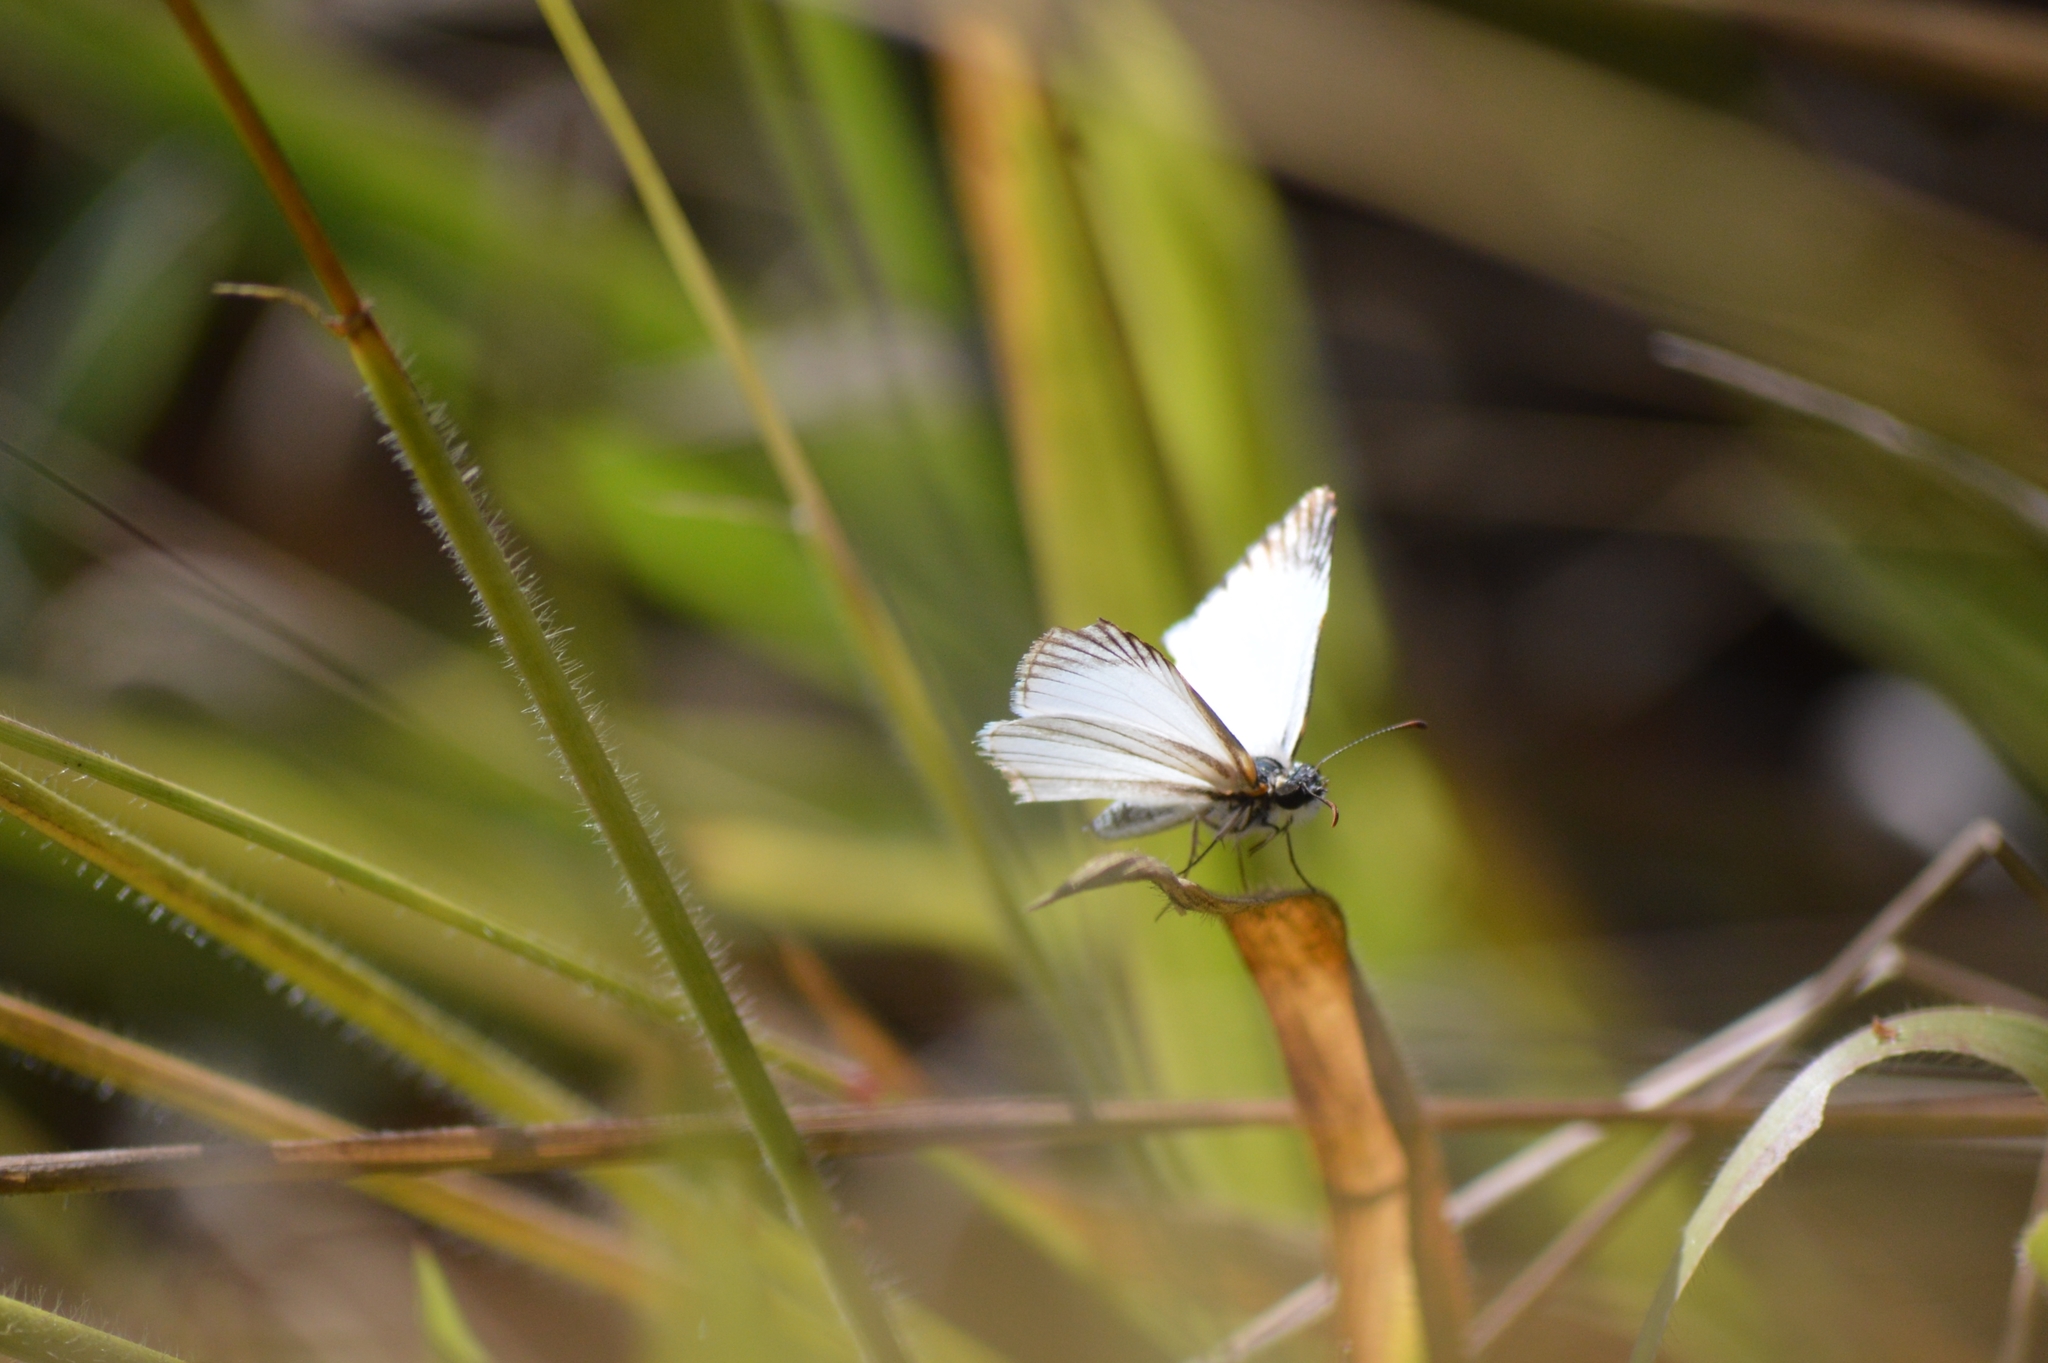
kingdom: Animalia
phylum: Arthropoda
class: Insecta
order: Lepidoptera
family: Hesperiidae
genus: Heliopetes
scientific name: Heliopetes arsalte
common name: Veined white-skipper
